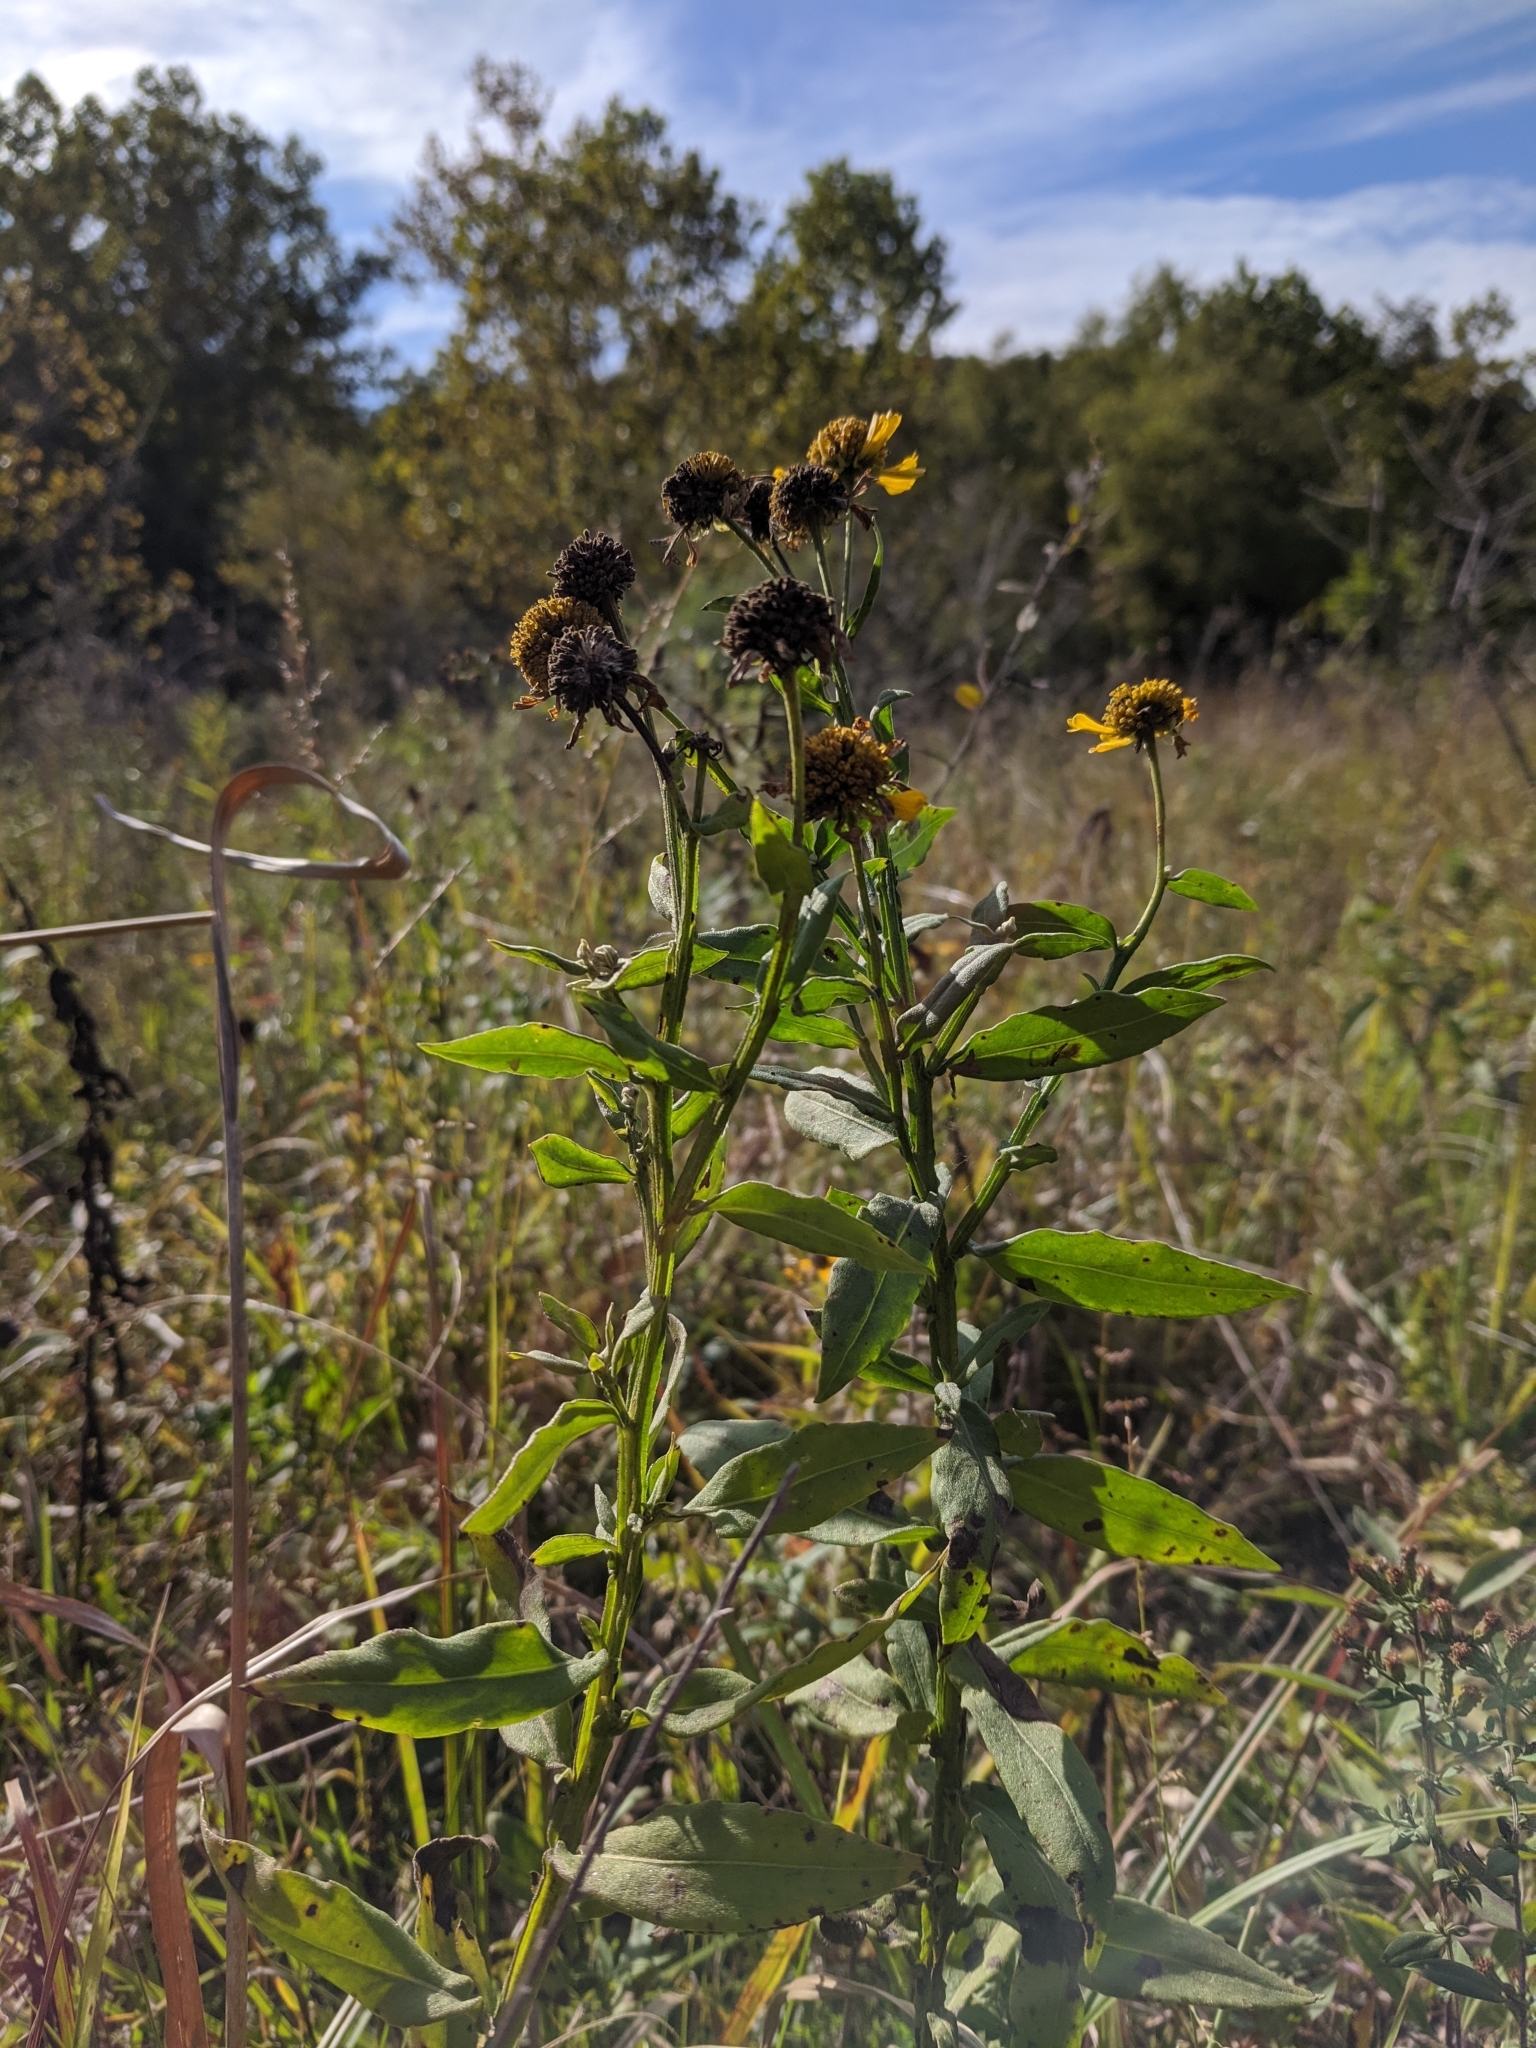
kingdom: Plantae
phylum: Tracheophyta
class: Magnoliopsida
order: Asterales
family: Asteraceae
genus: Helenium
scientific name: Helenium autumnale
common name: Sneezeweed
